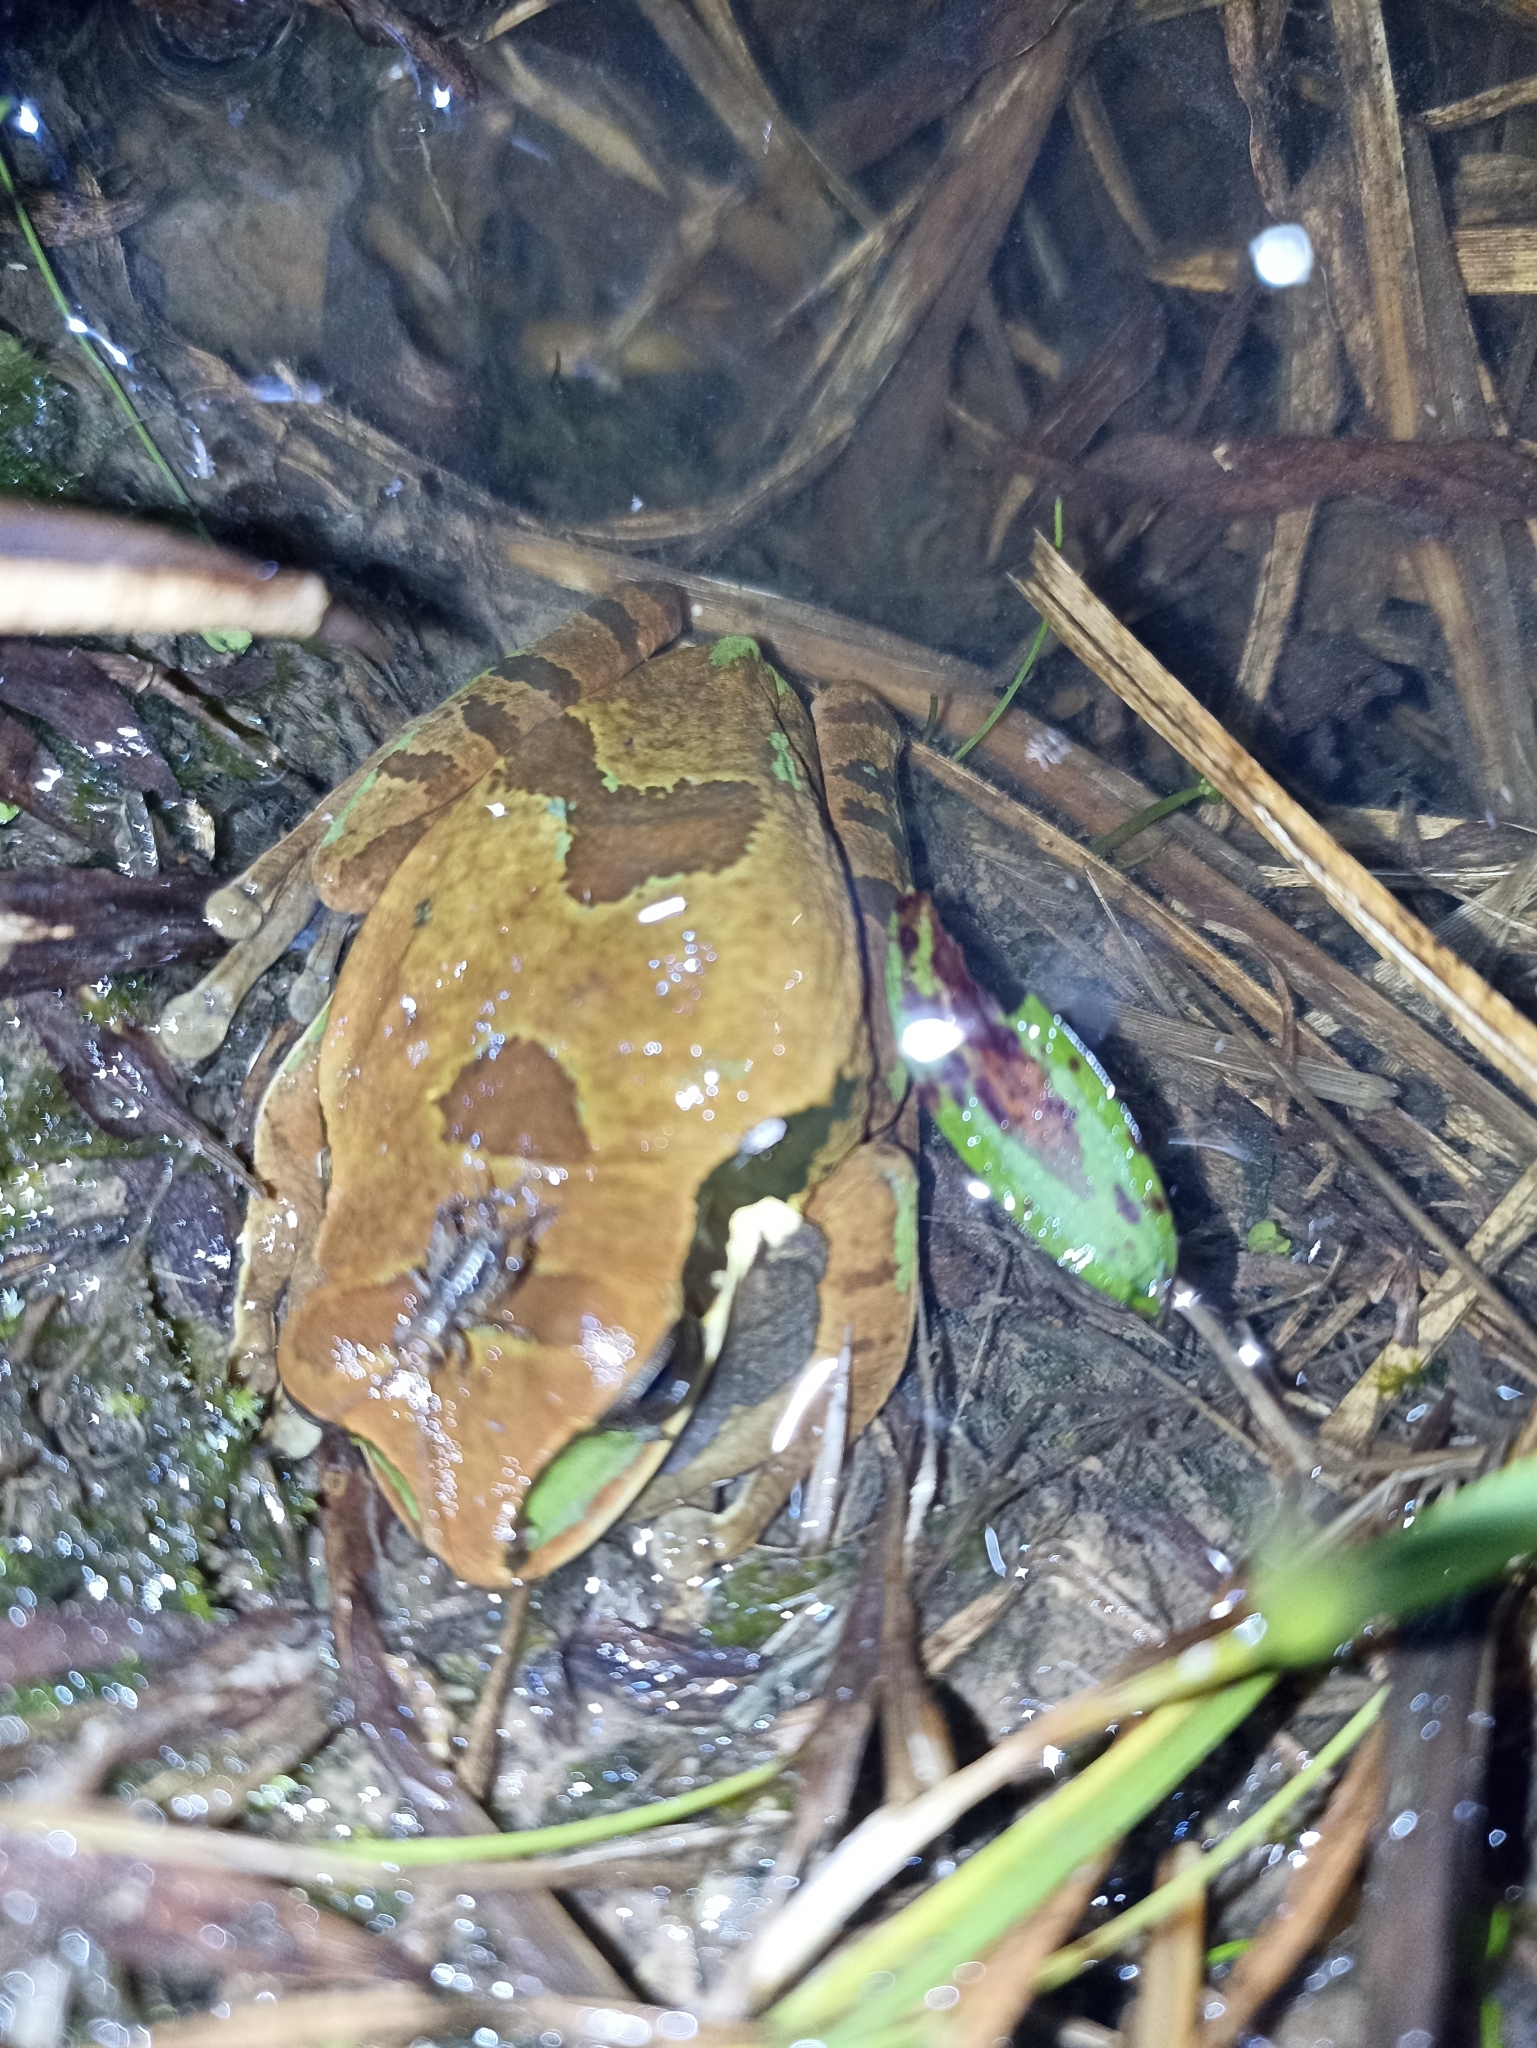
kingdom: Animalia
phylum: Chordata
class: Amphibia
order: Anura
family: Hylidae
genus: Smilisca
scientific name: Smilisca phaeota
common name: Central american smilisca
